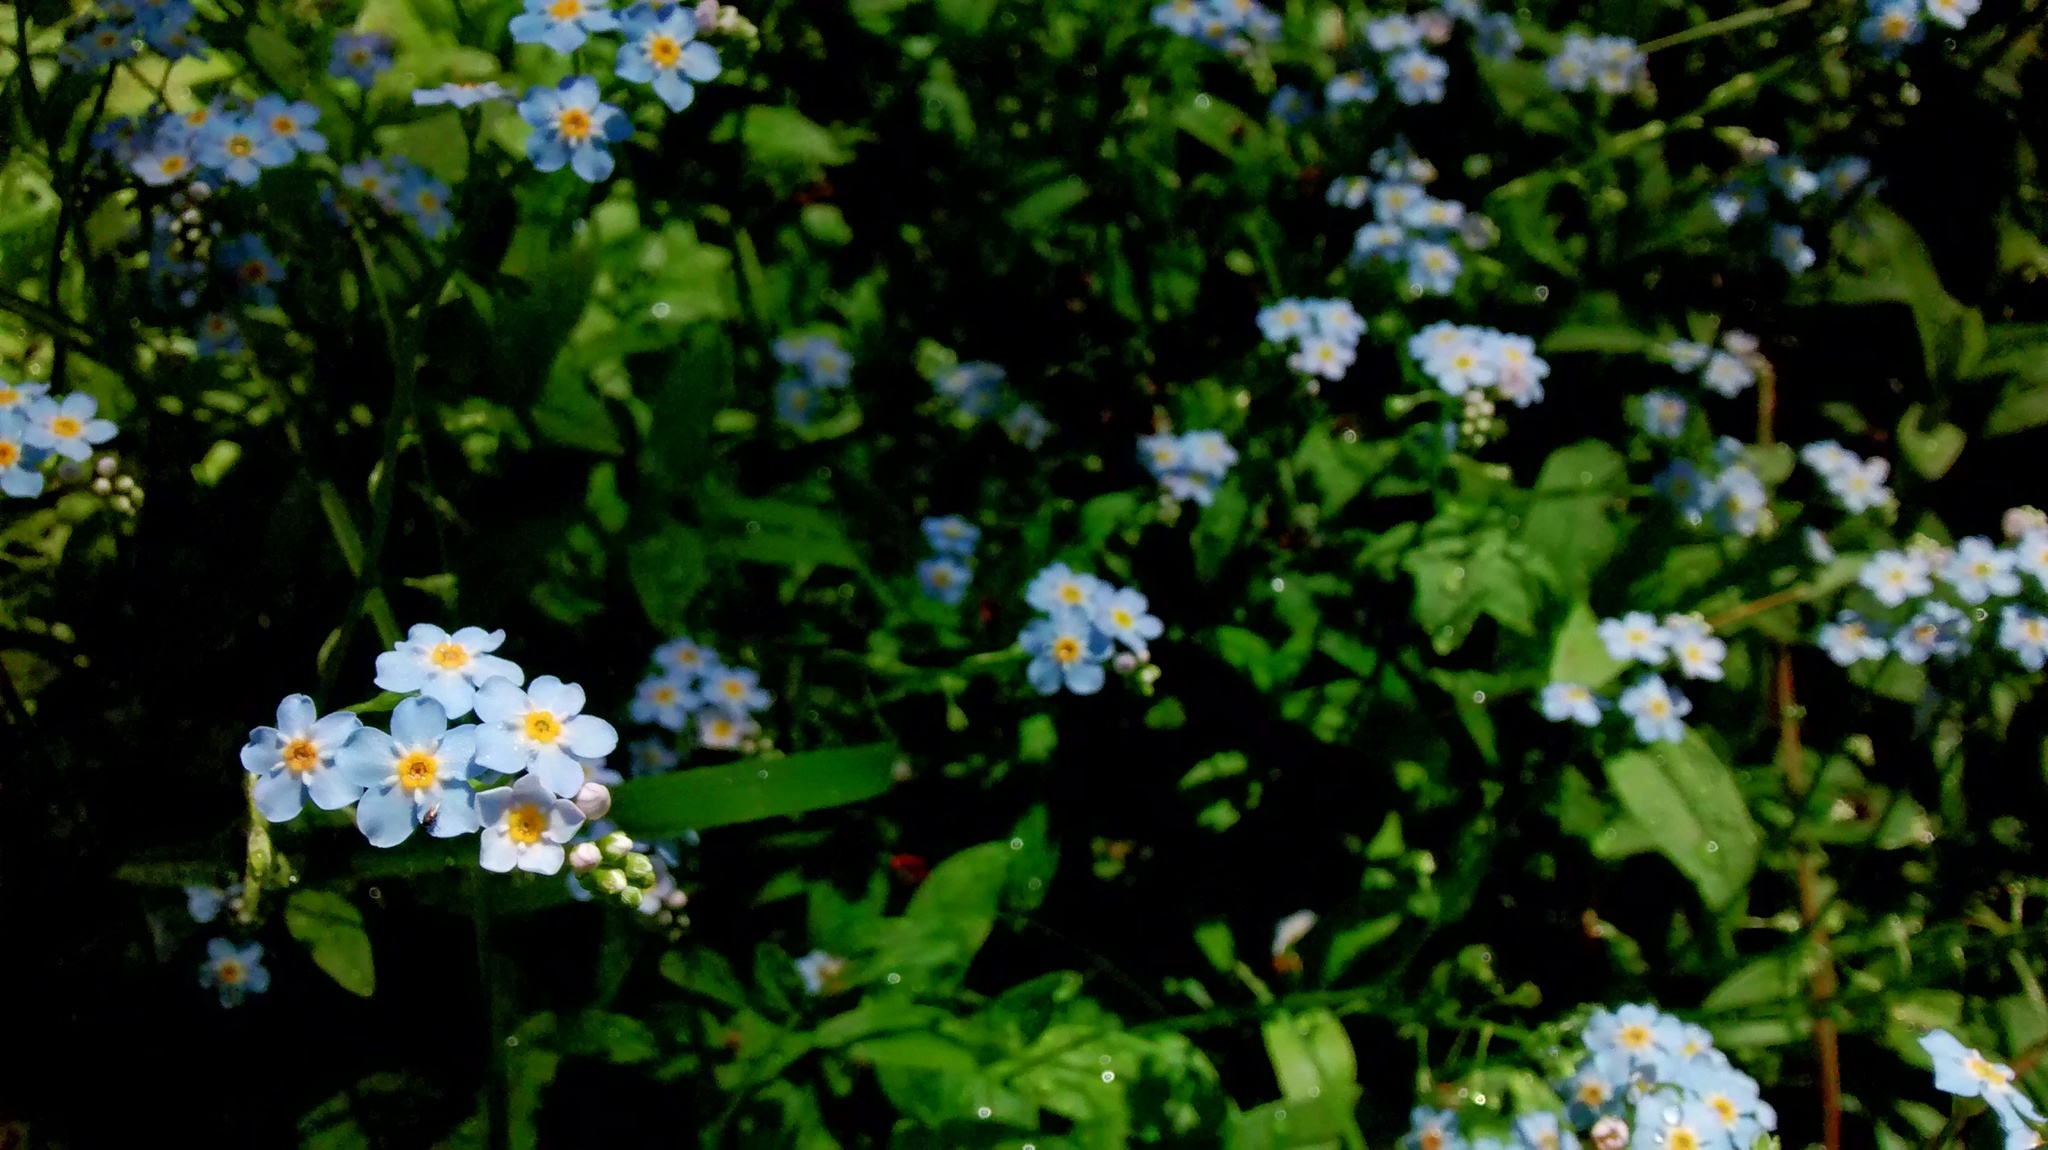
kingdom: Plantae
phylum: Tracheophyta
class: Magnoliopsida
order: Boraginales
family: Boraginaceae
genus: Myosotis
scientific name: Myosotis scorpioides
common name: Water forget-me-not
